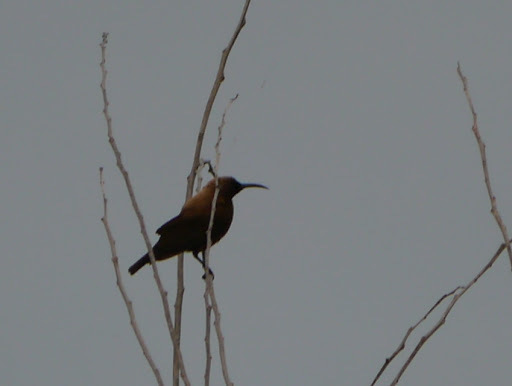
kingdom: Animalia
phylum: Chordata
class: Aves
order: Passeriformes
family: Nectariniidae
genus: Chalcomitra
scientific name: Chalcomitra fuliginosa
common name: Carmelite sunbird
